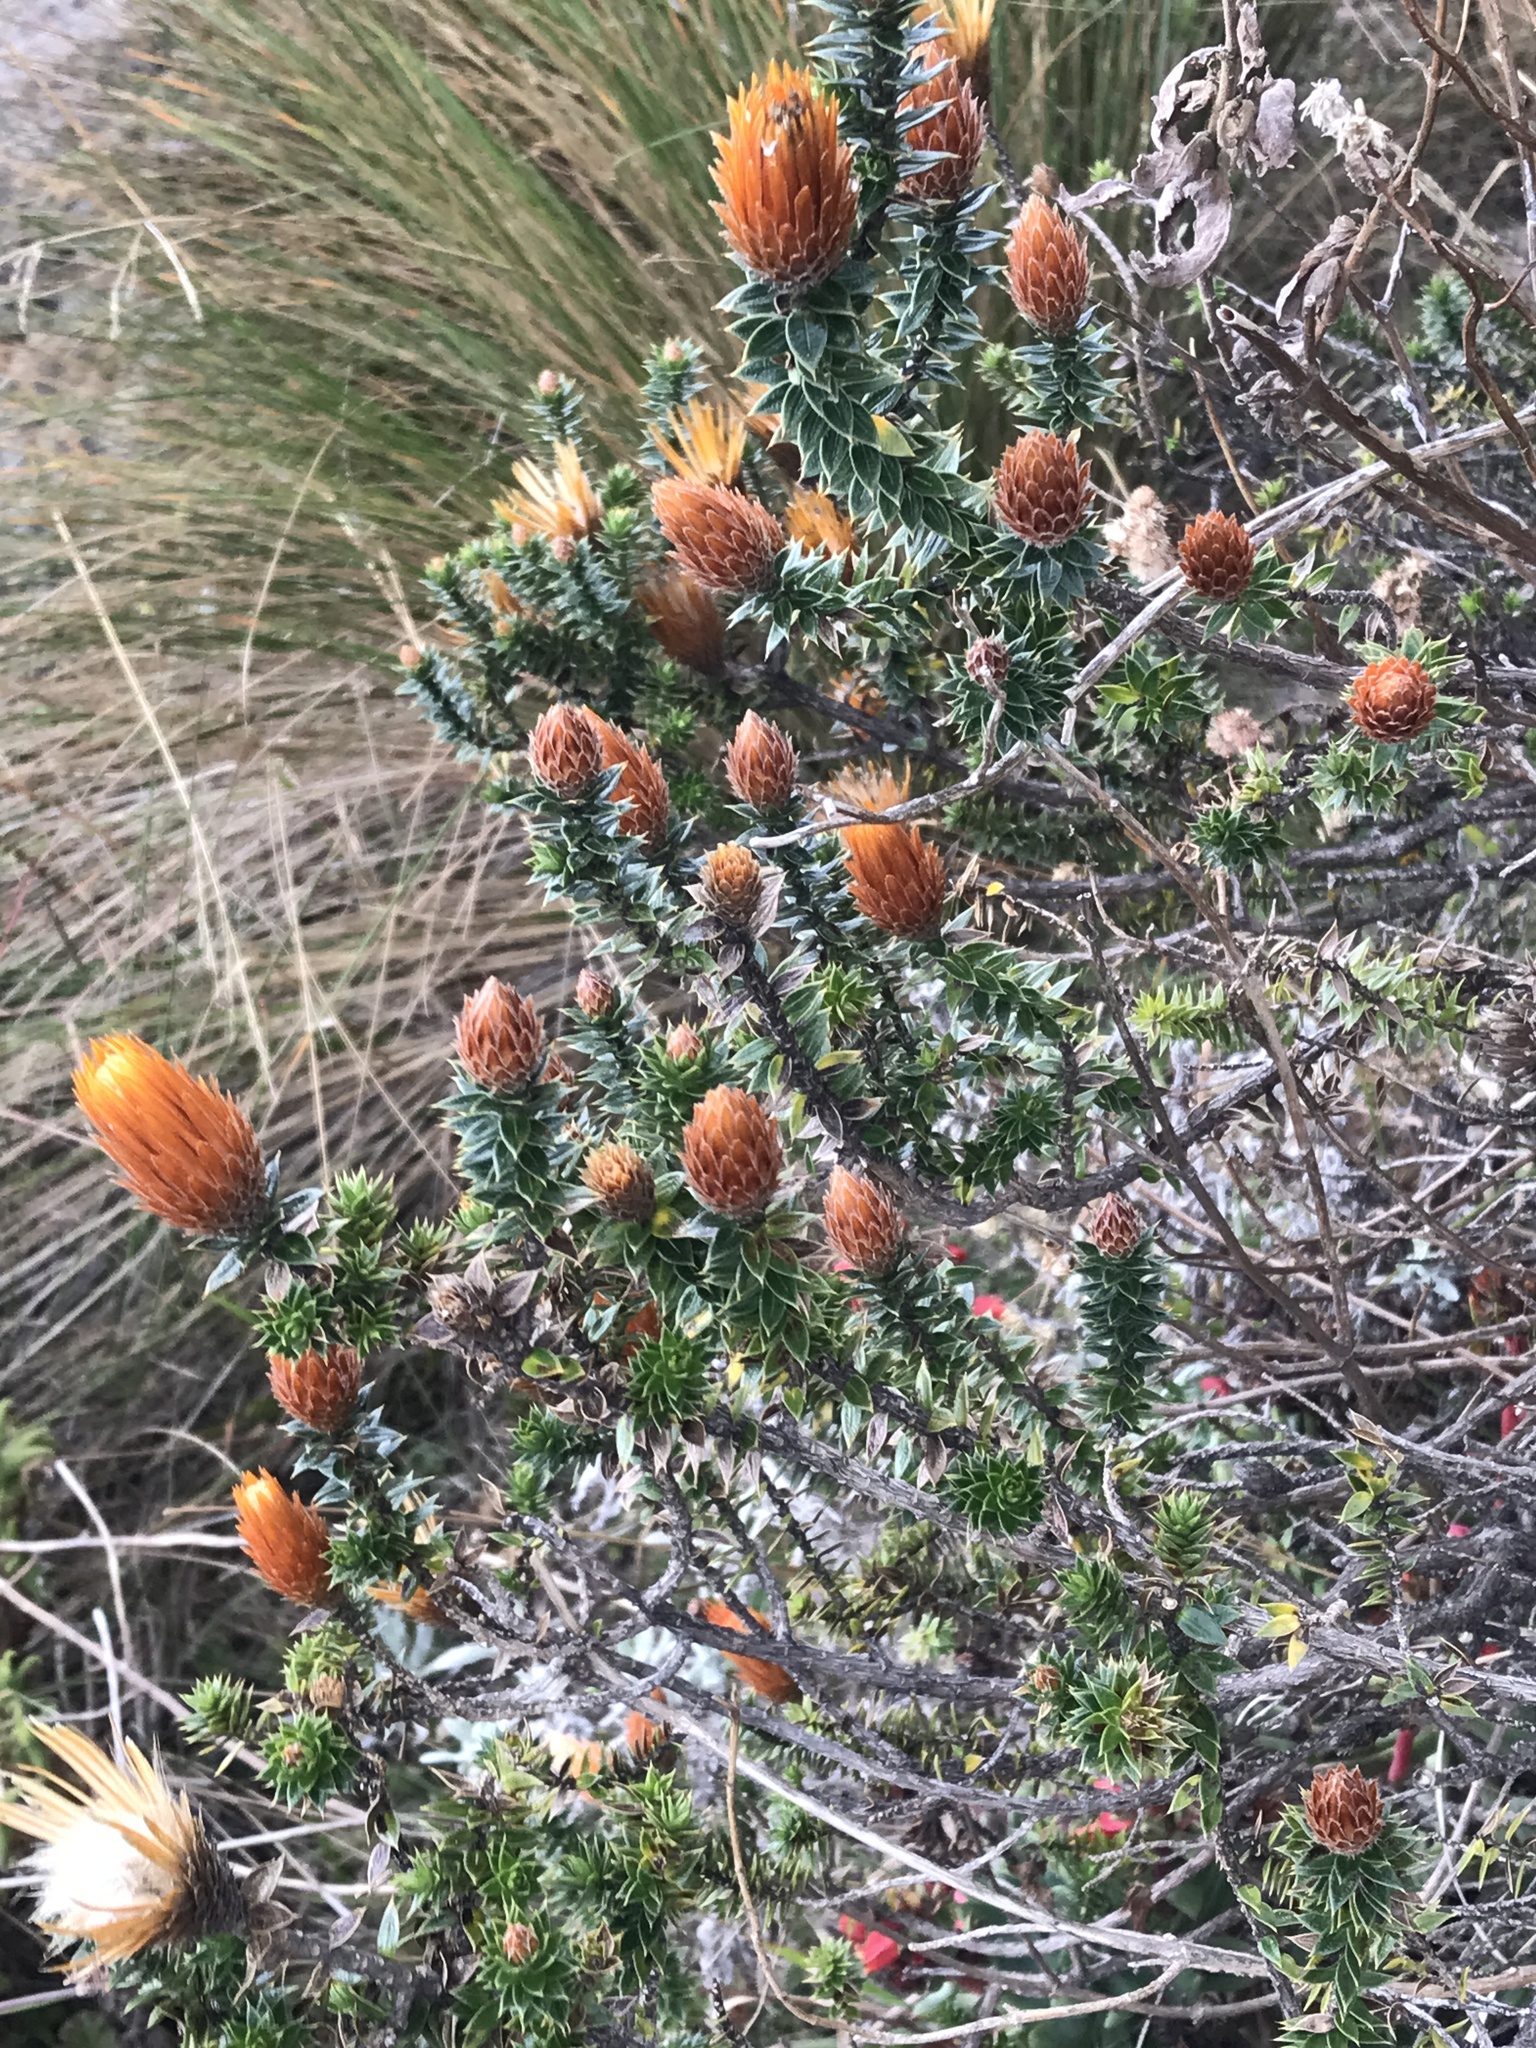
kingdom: Plantae
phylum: Tracheophyta
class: Magnoliopsida
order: Asterales
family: Asteraceae
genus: Chuquiraga
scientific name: Chuquiraga jussieui
